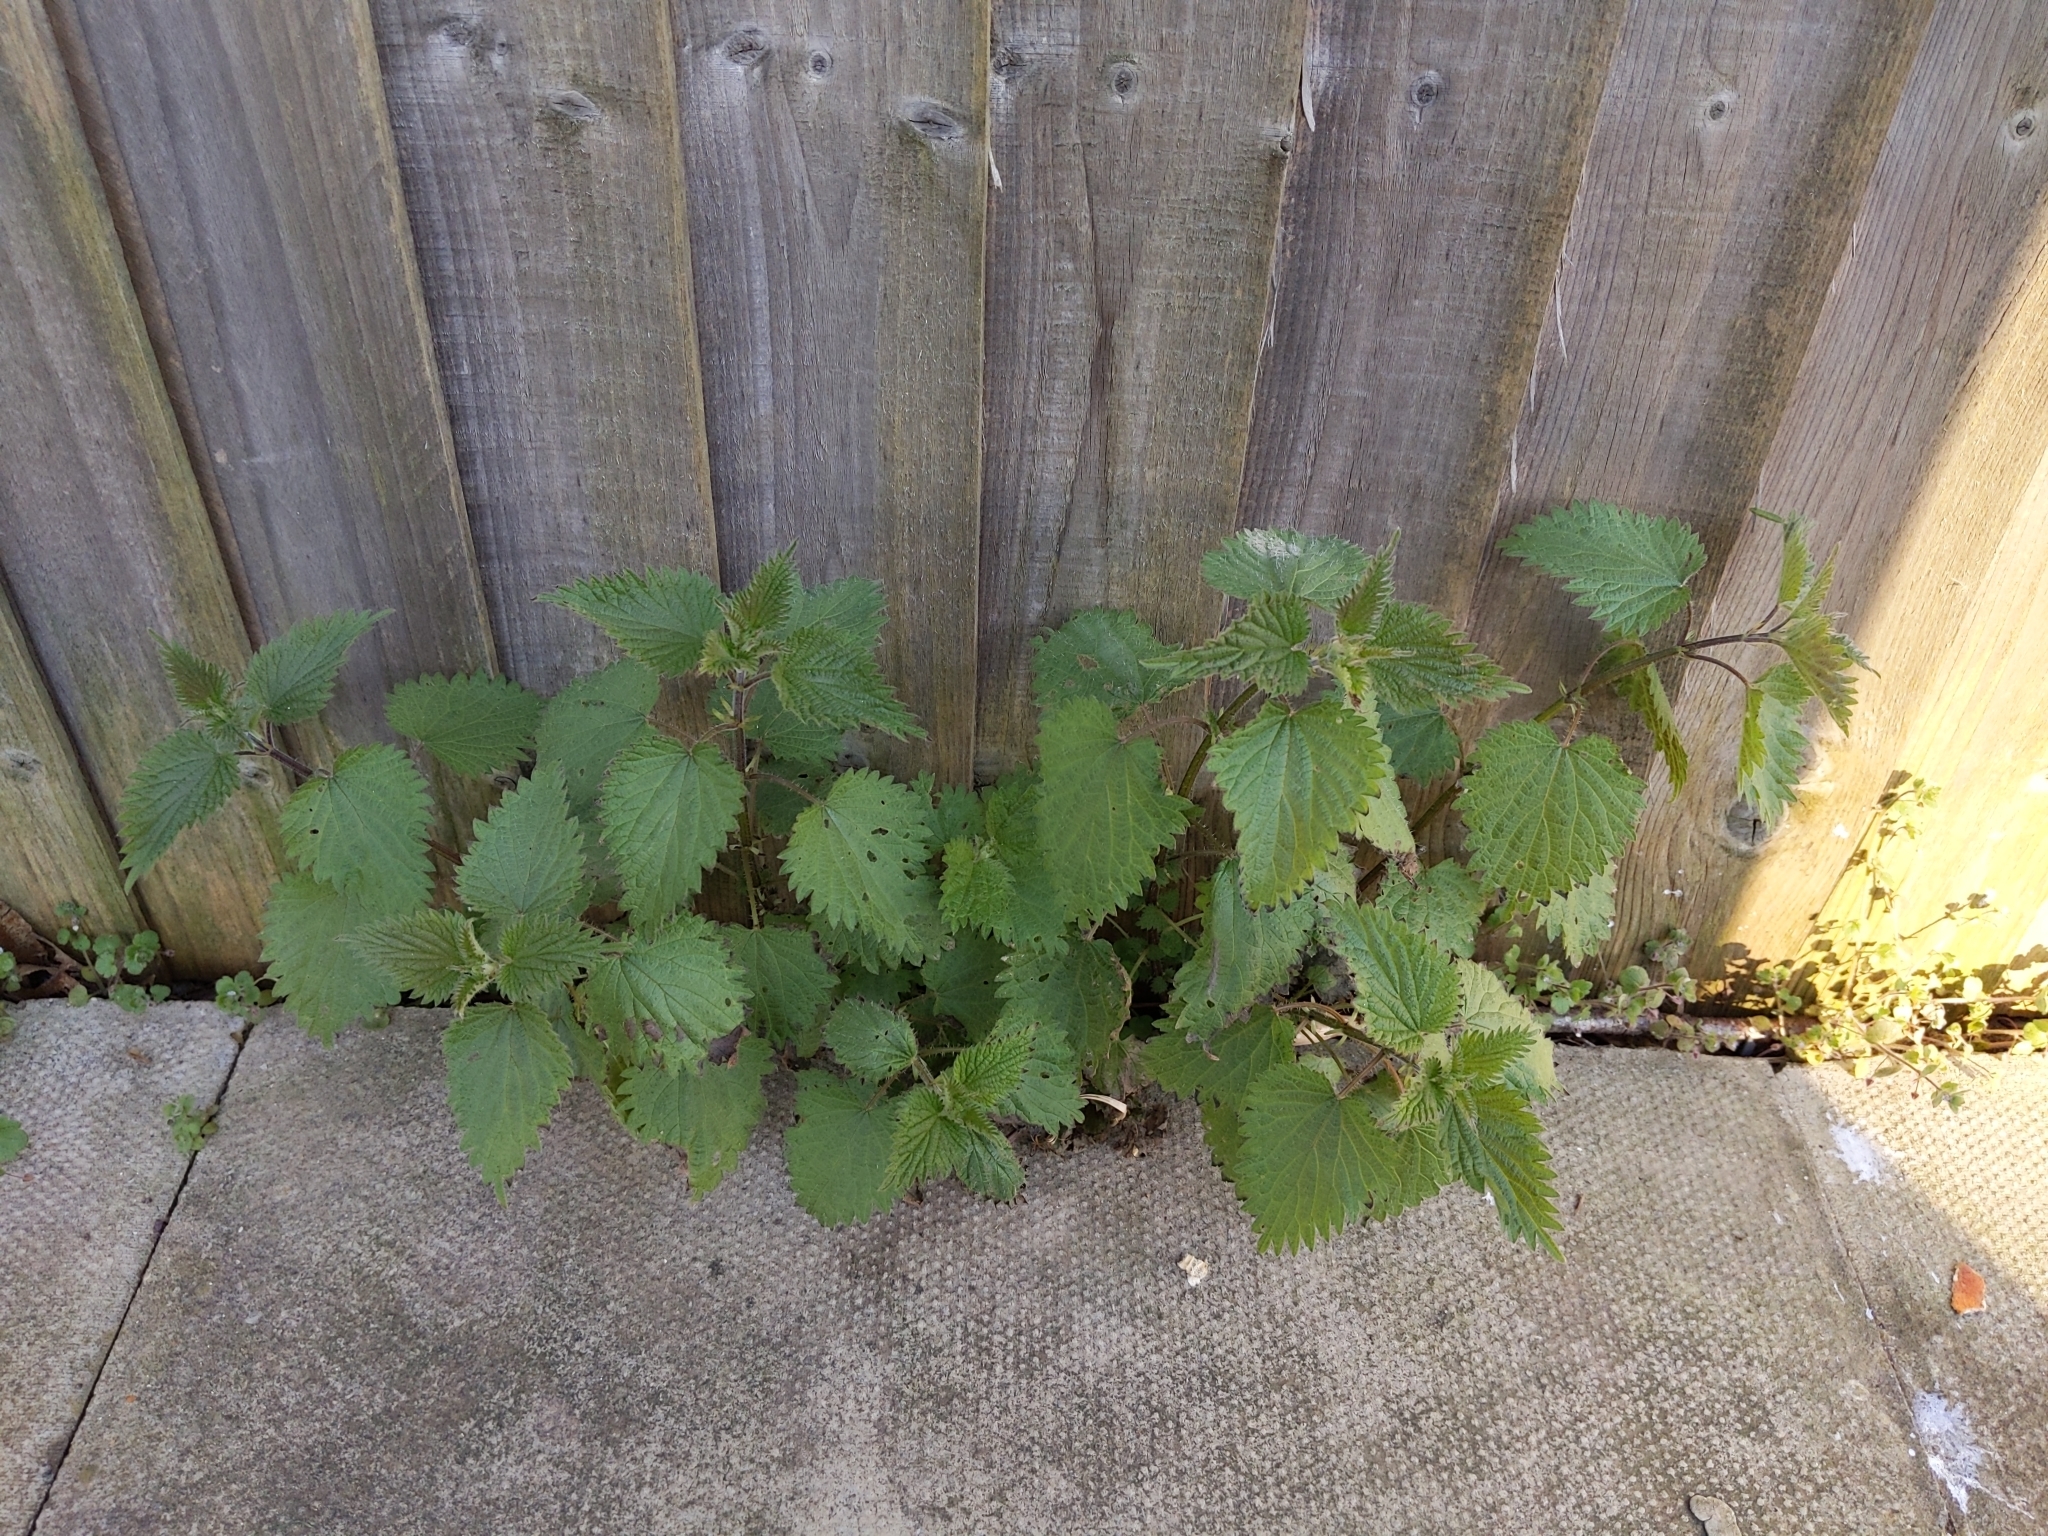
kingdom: Plantae
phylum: Tracheophyta
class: Magnoliopsida
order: Rosales
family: Urticaceae
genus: Urtica
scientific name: Urtica dioica
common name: Common nettle
